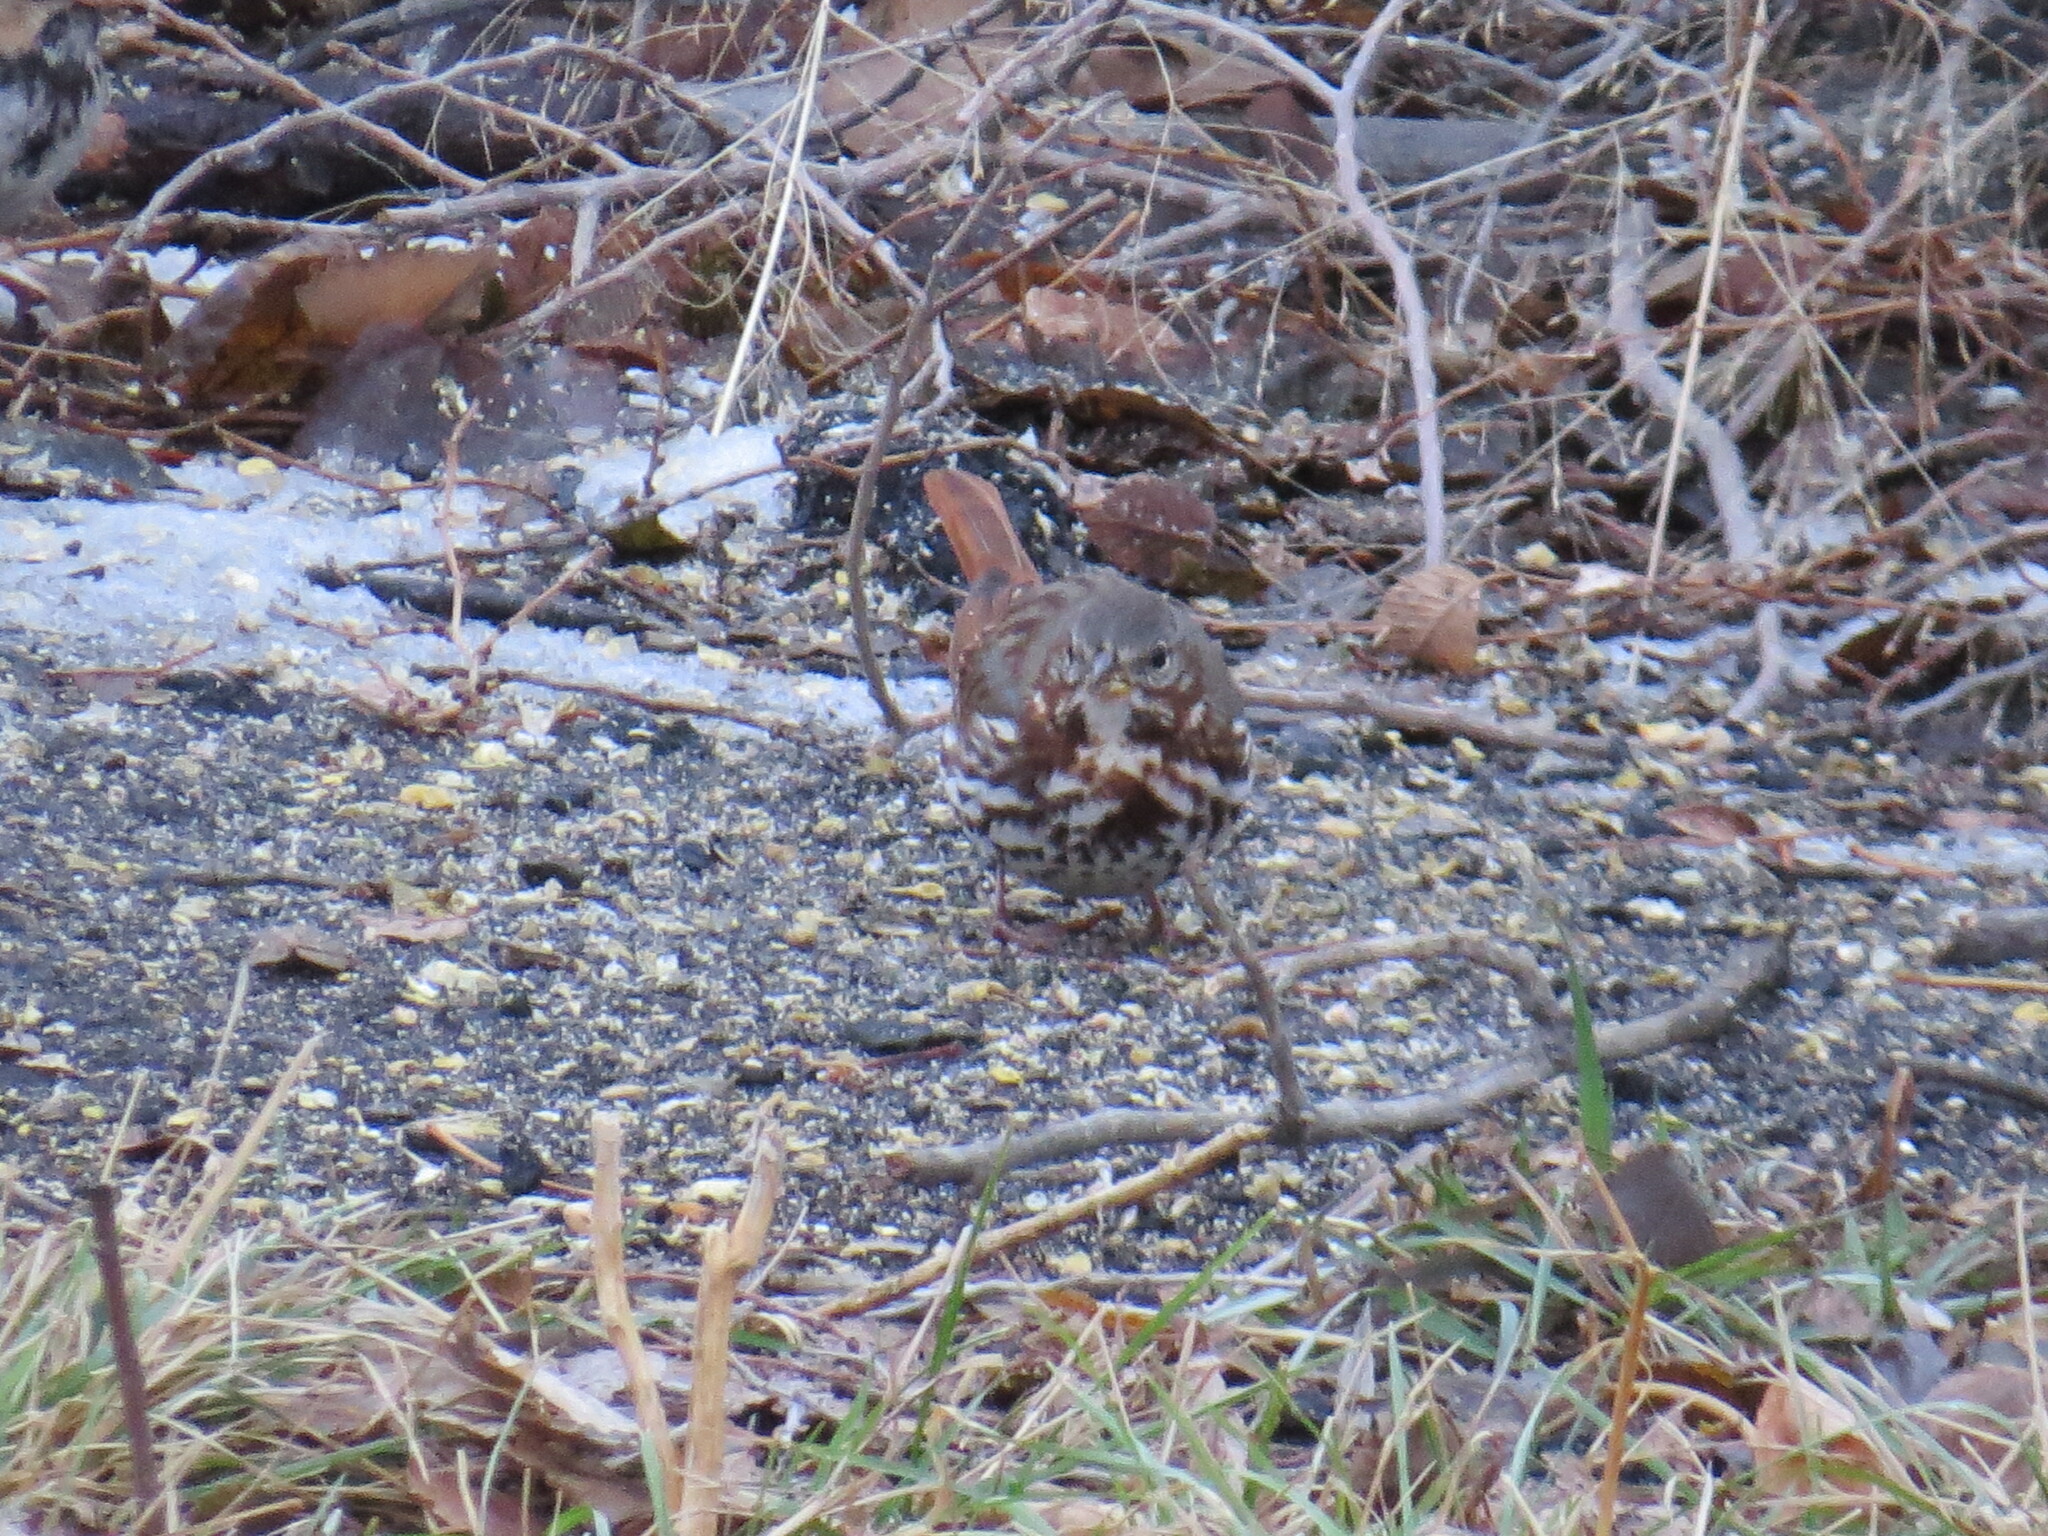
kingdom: Animalia
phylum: Chordata
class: Aves
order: Passeriformes
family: Passerellidae
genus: Passerella
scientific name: Passerella iliaca
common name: Fox sparrow
